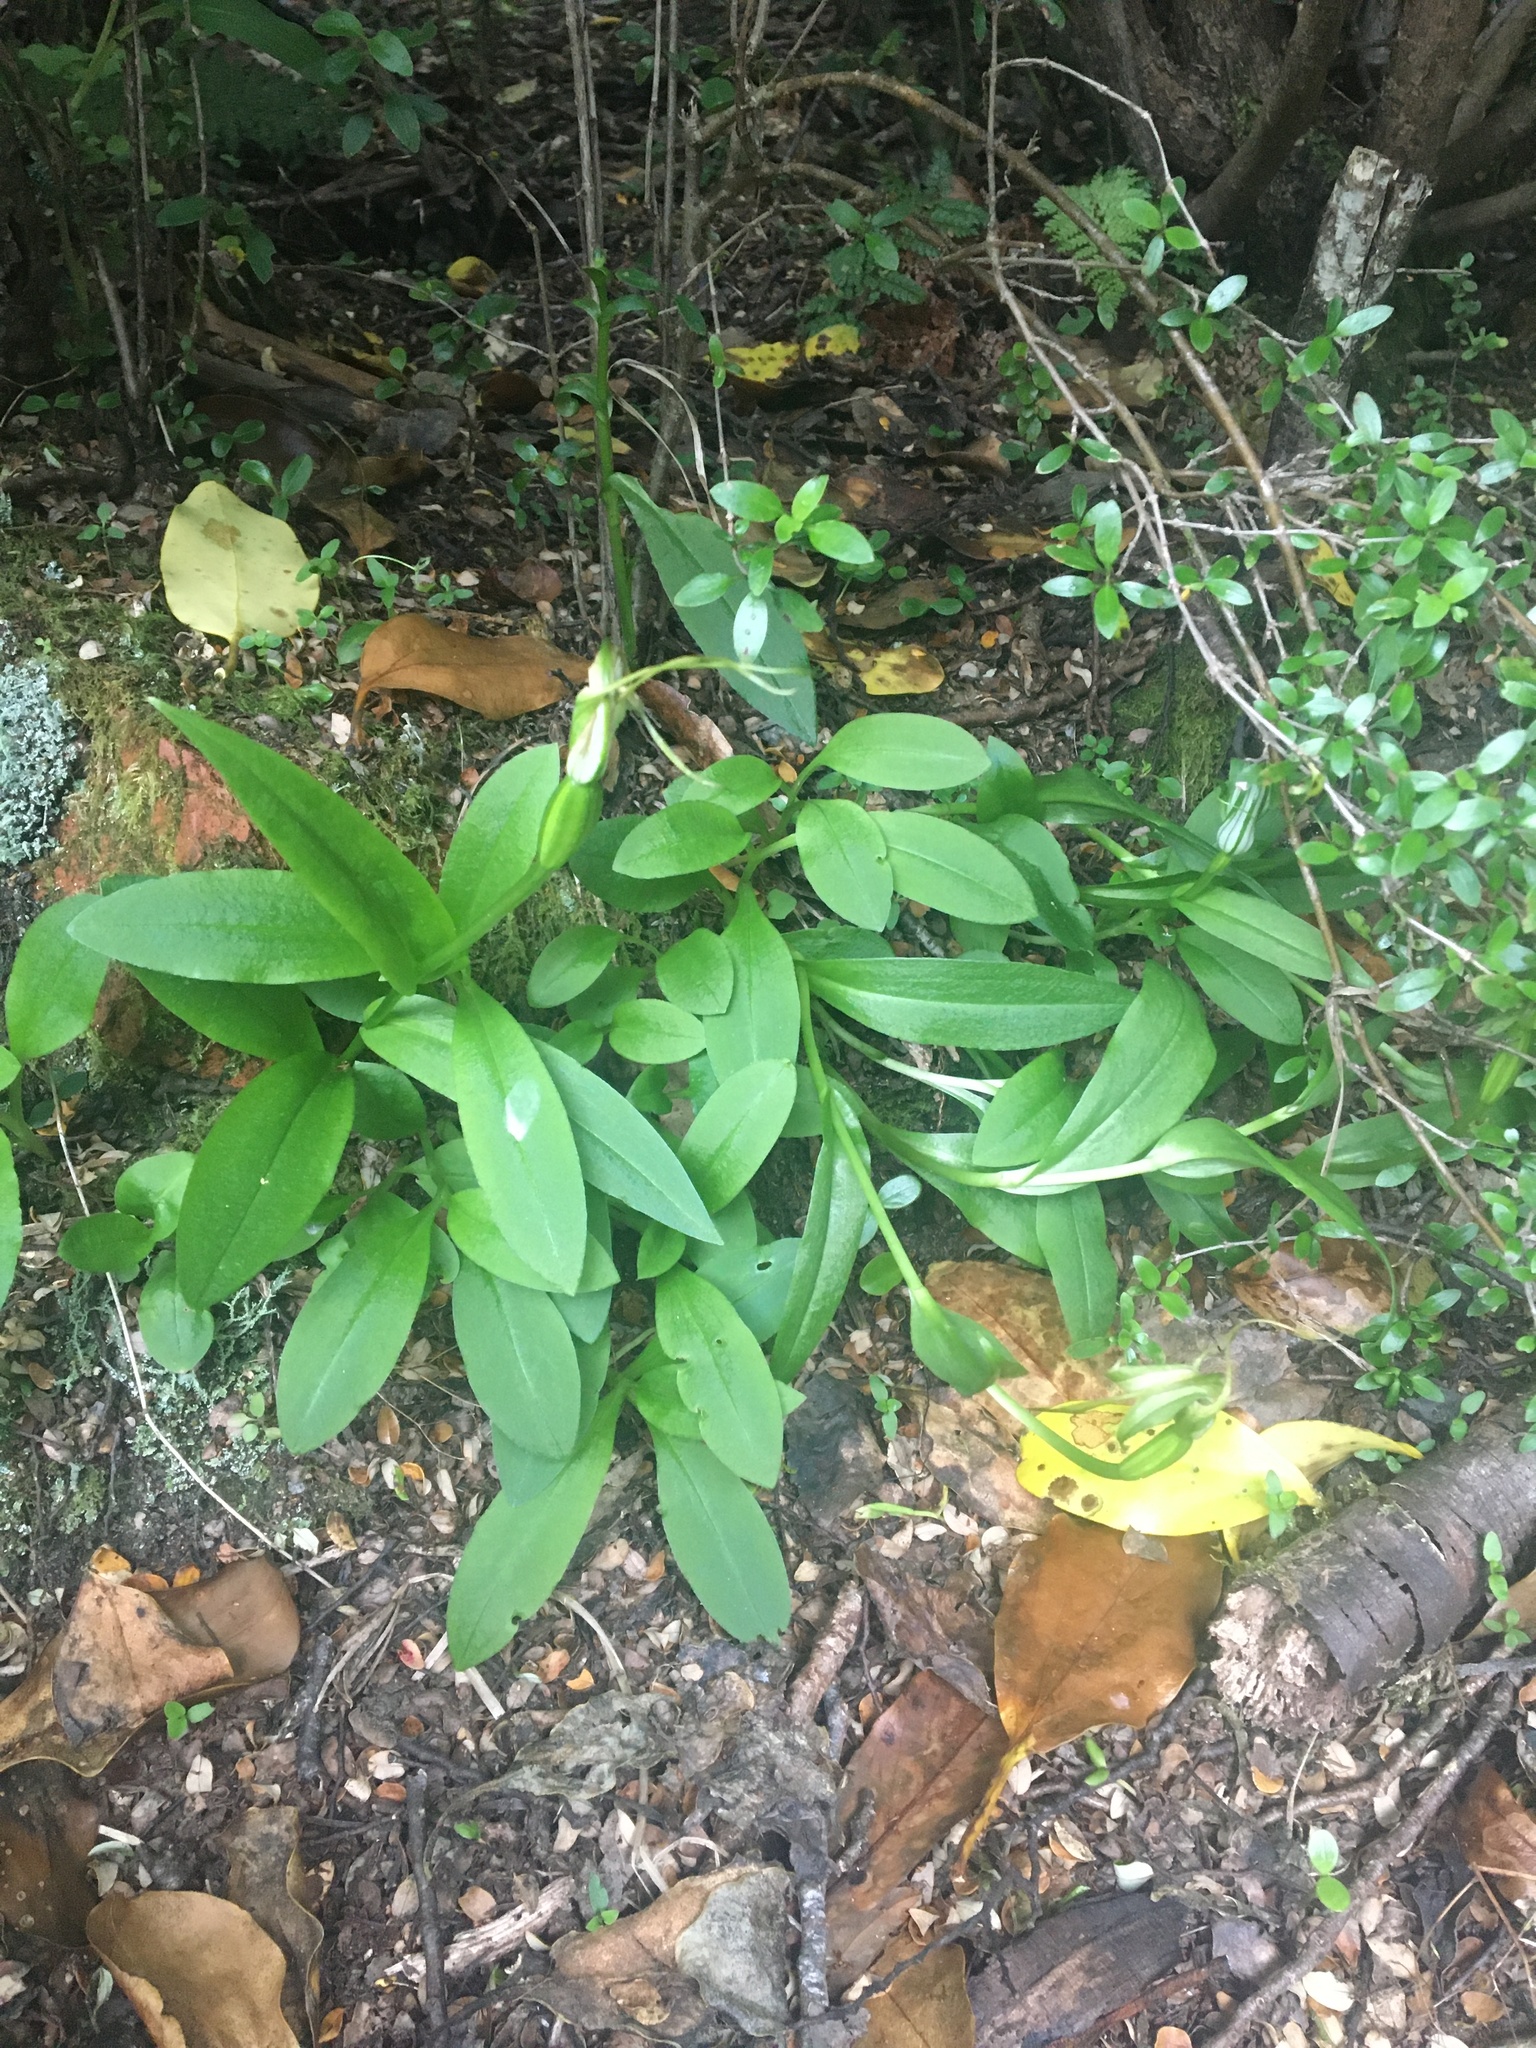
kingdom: Plantae
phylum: Tracheophyta
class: Liliopsida
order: Asparagales
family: Orchidaceae
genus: Pterostylis
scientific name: Pterostylis oliveri
